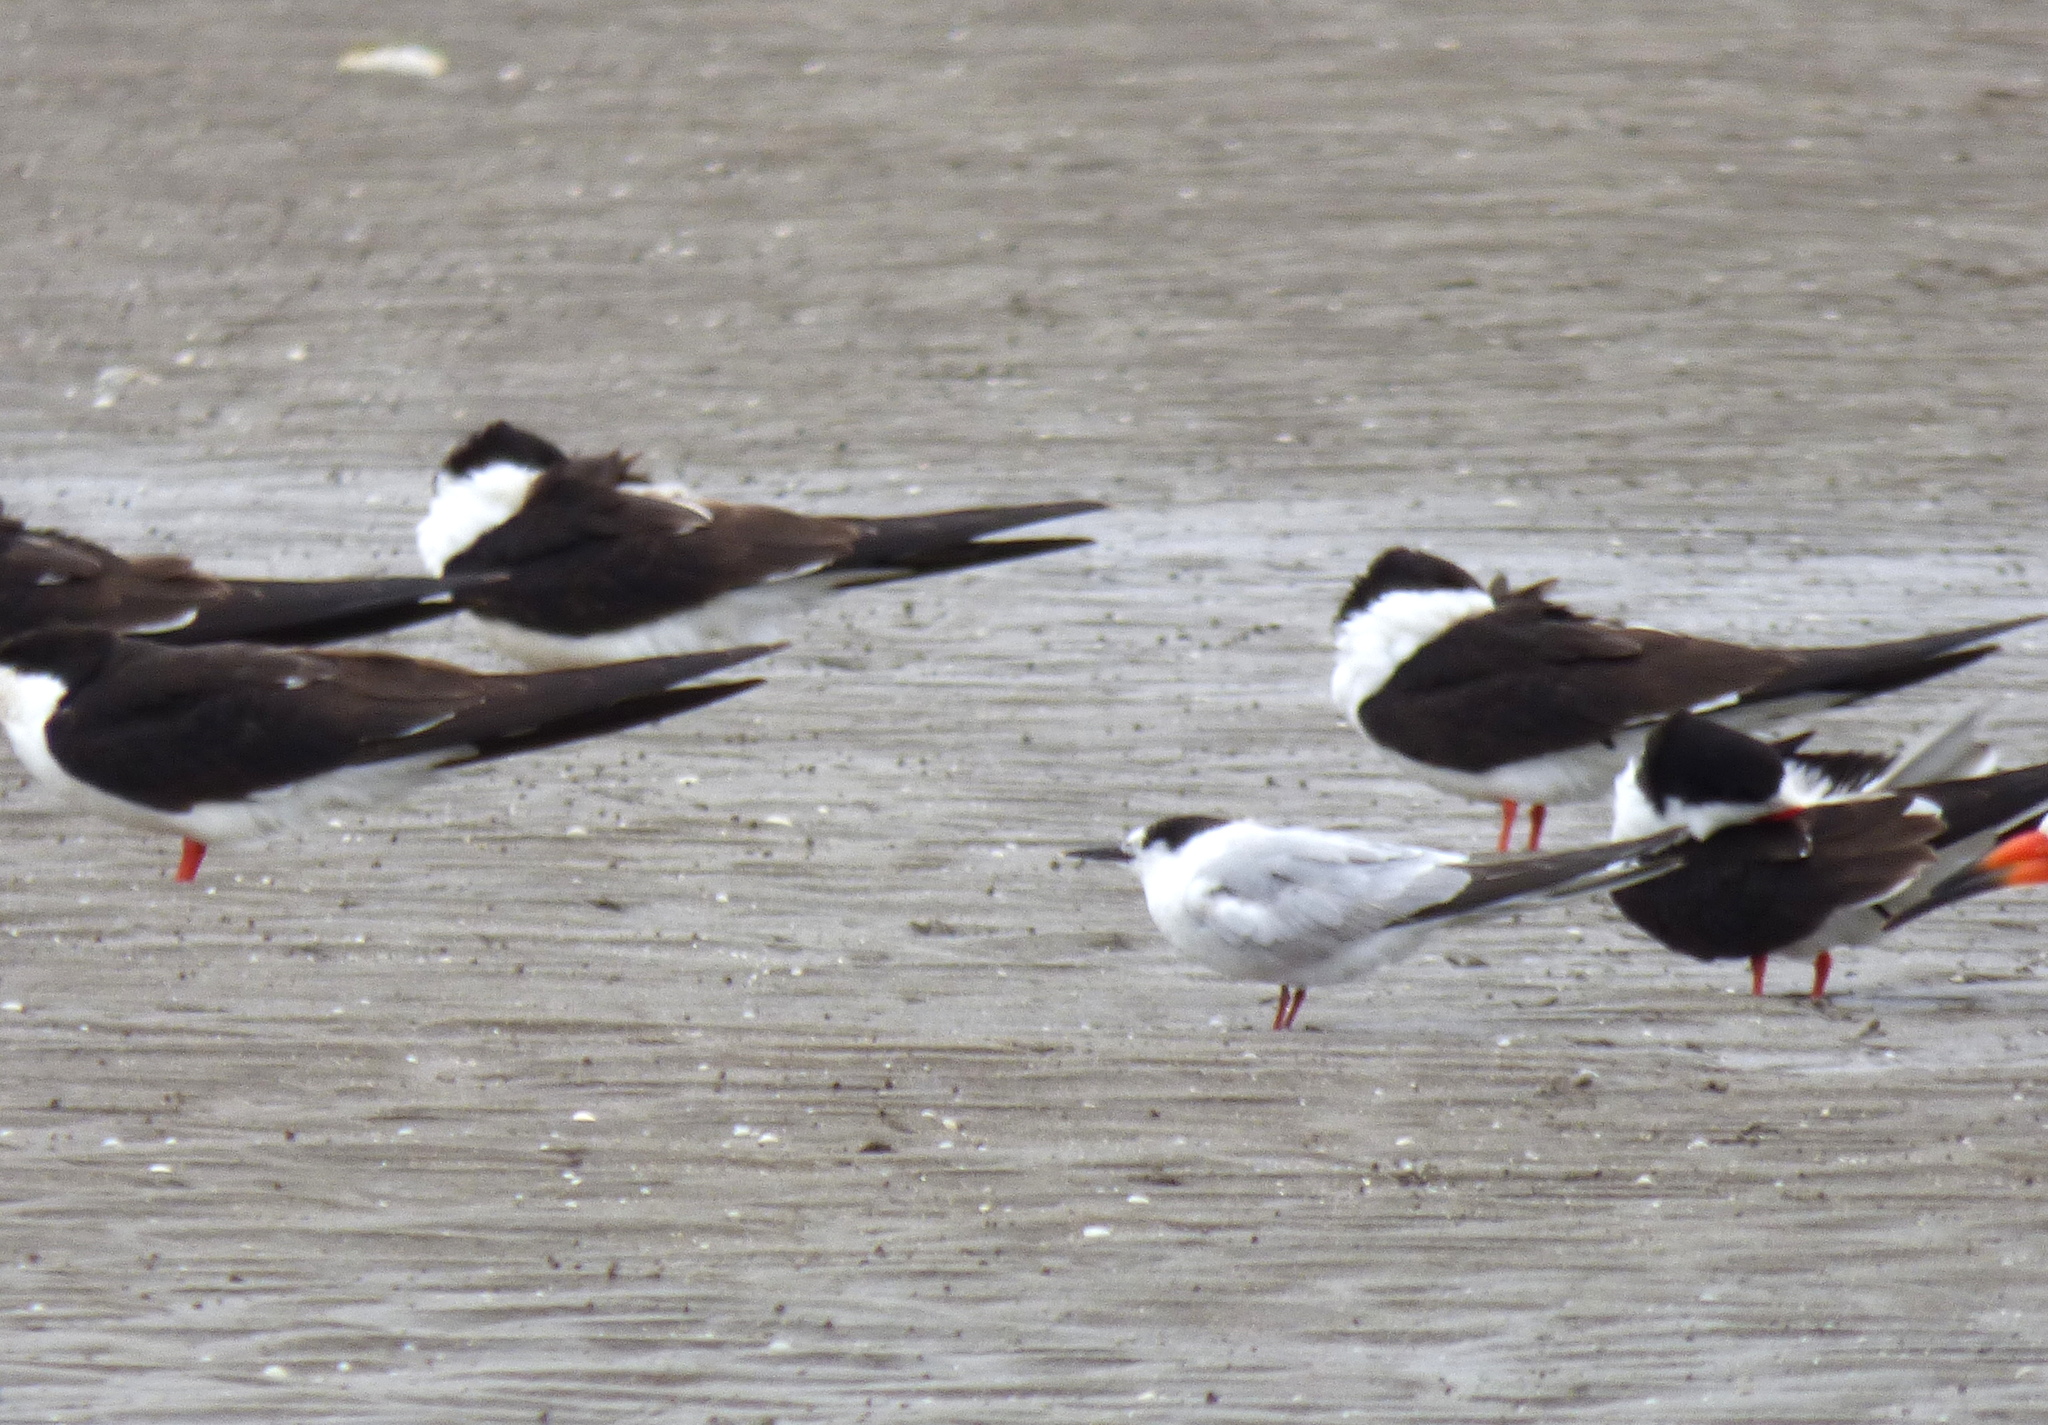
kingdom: Animalia
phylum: Chordata
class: Aves
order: Charadriiformes
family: Laridae
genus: Sterna
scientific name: Sterna hirundo
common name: Common tern
